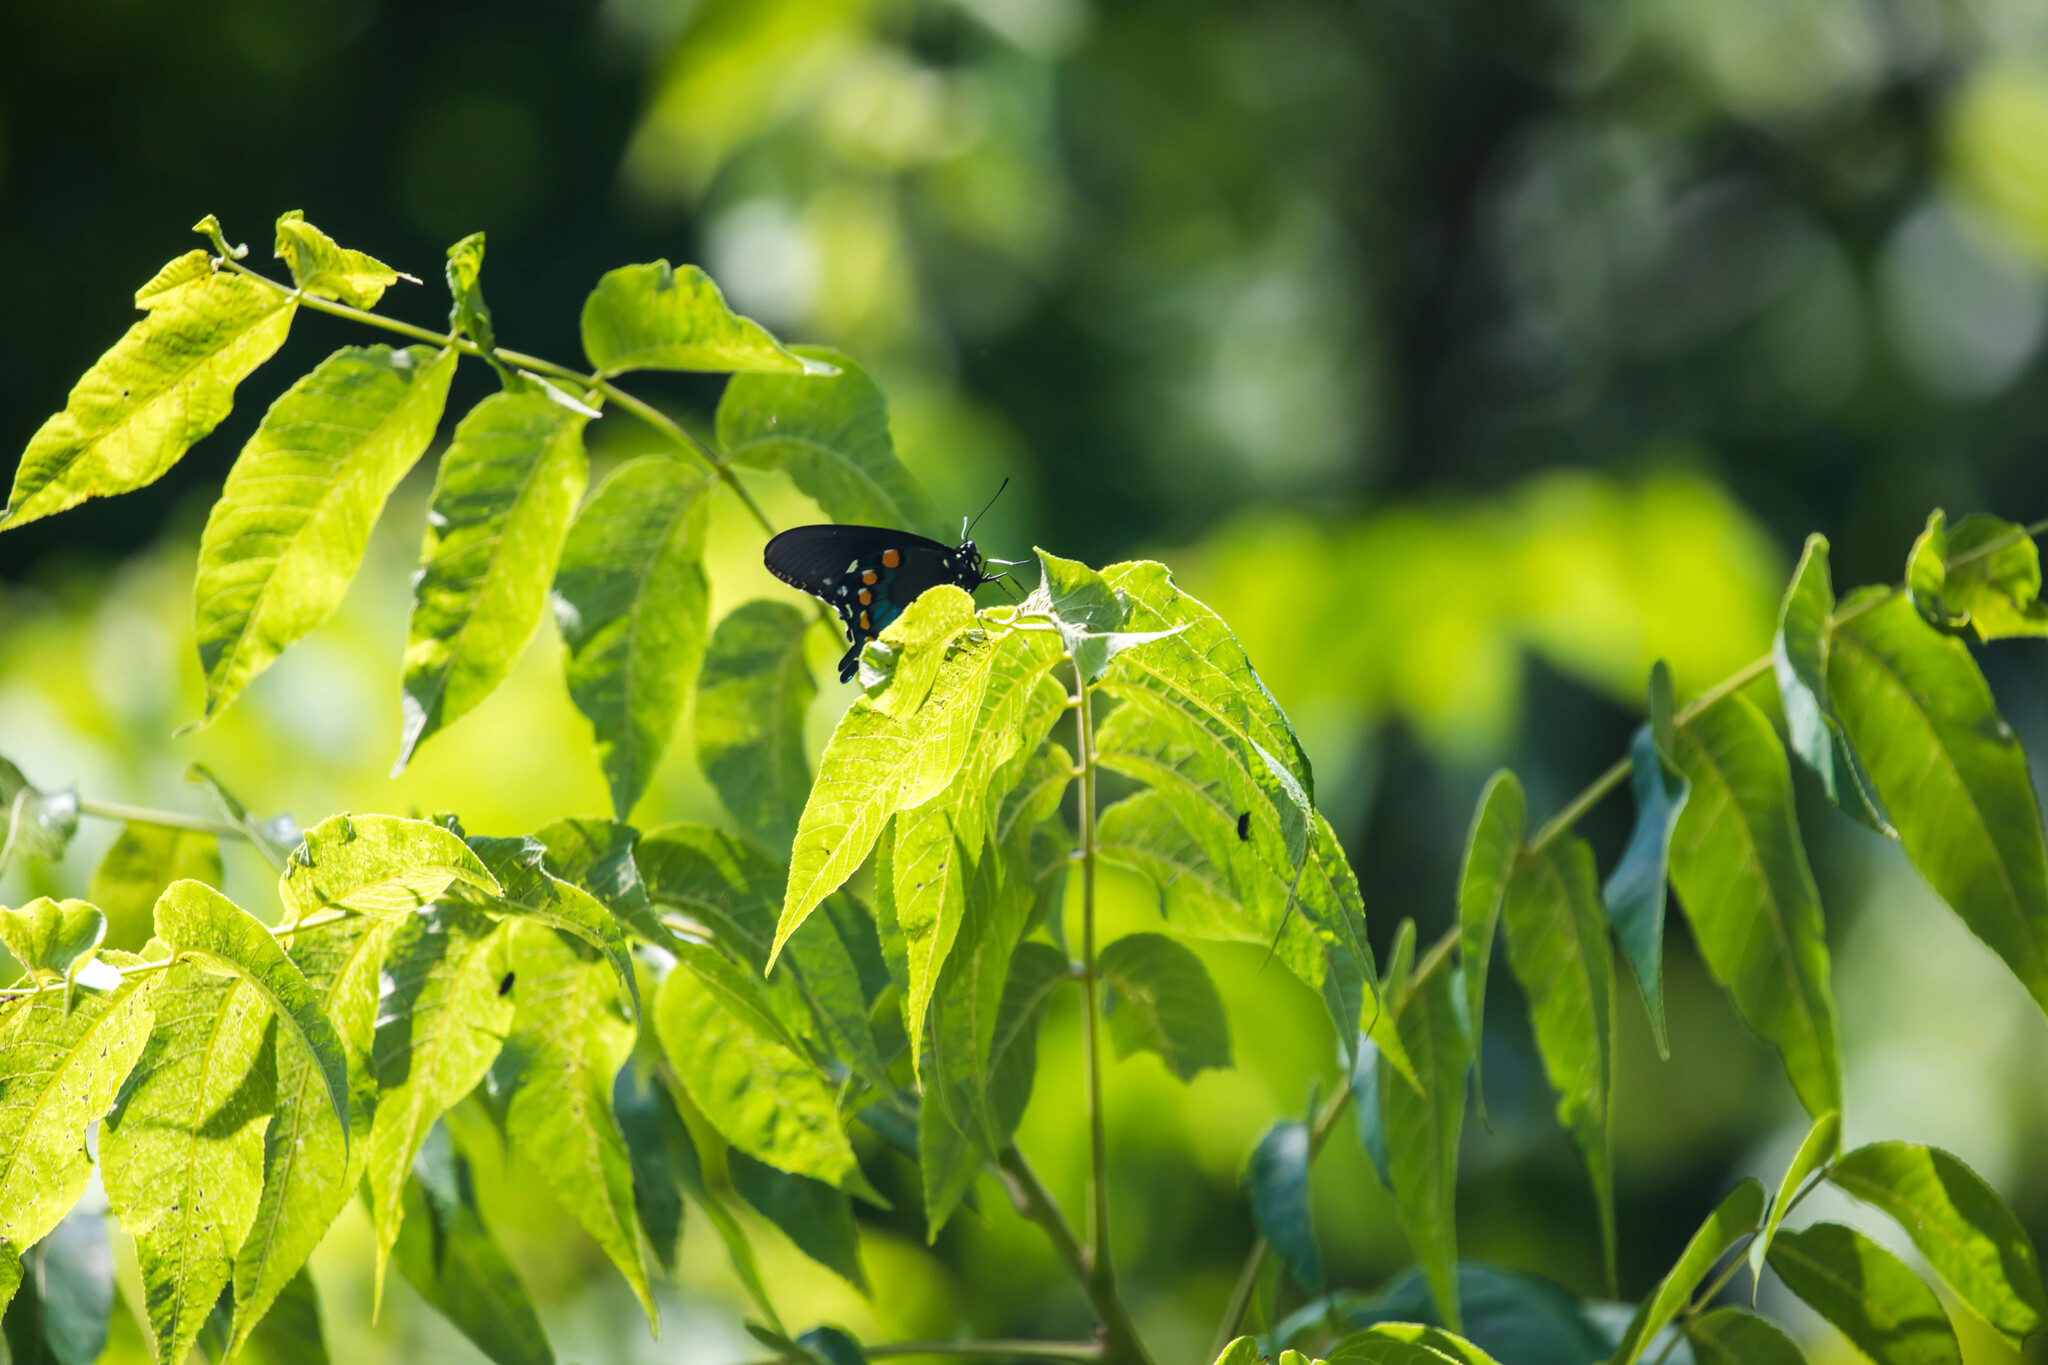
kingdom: Animalia
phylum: Arthropoda
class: Insecta
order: Lepidoptera
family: Papilionidae
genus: Battus
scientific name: Battus philenor
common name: Pipevine swallowtail
